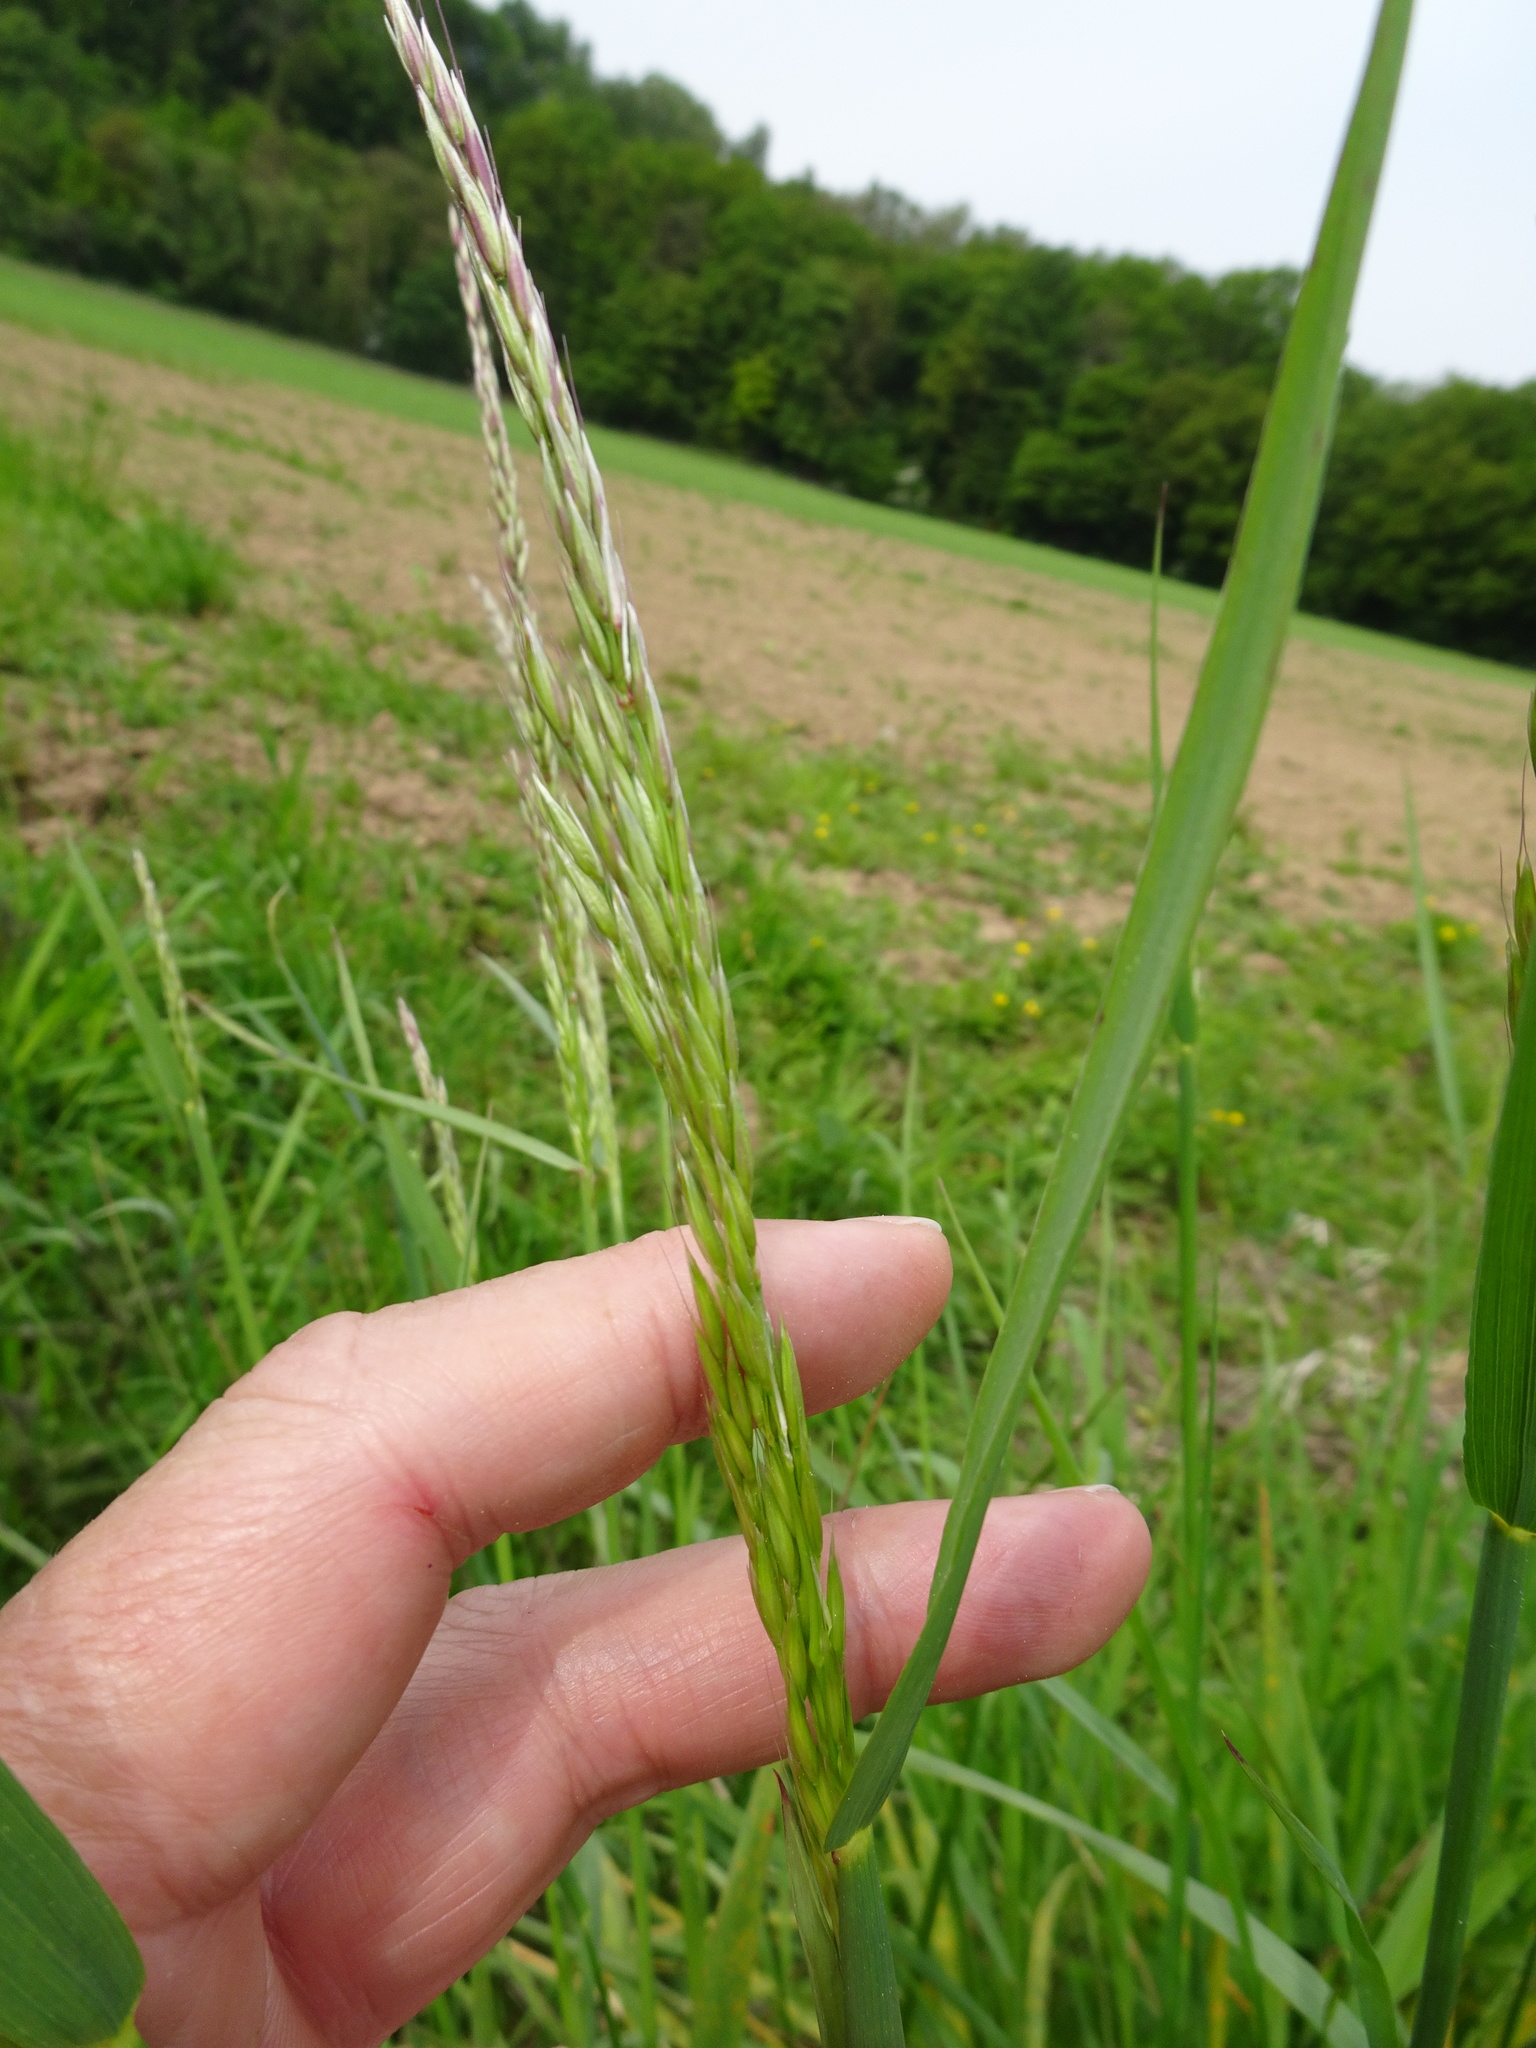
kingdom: Plantae
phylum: Tracheophyta
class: Liliopsida
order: Poales
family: Poaceae
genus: Arrhenatherum
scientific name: Arrhenatherum elatius
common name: Tall oatgrass
